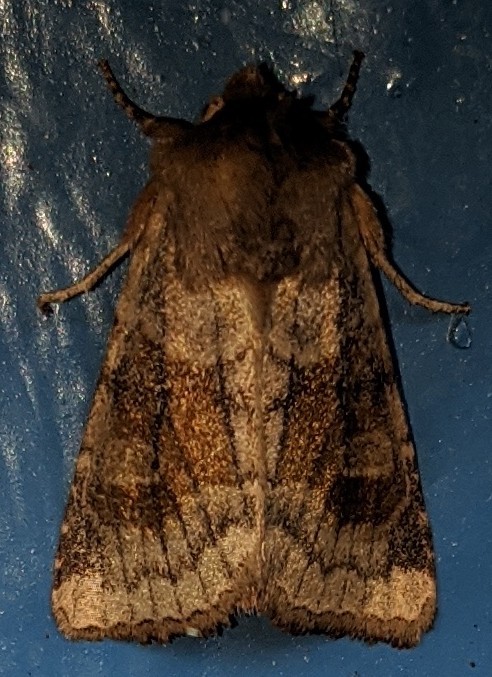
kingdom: Animalia
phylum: Arthropoda
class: Insecta
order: Lepidoptera
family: Noctuidae
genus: Nephelodes
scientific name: Nephelodes minians
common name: Bronzed cutworm
